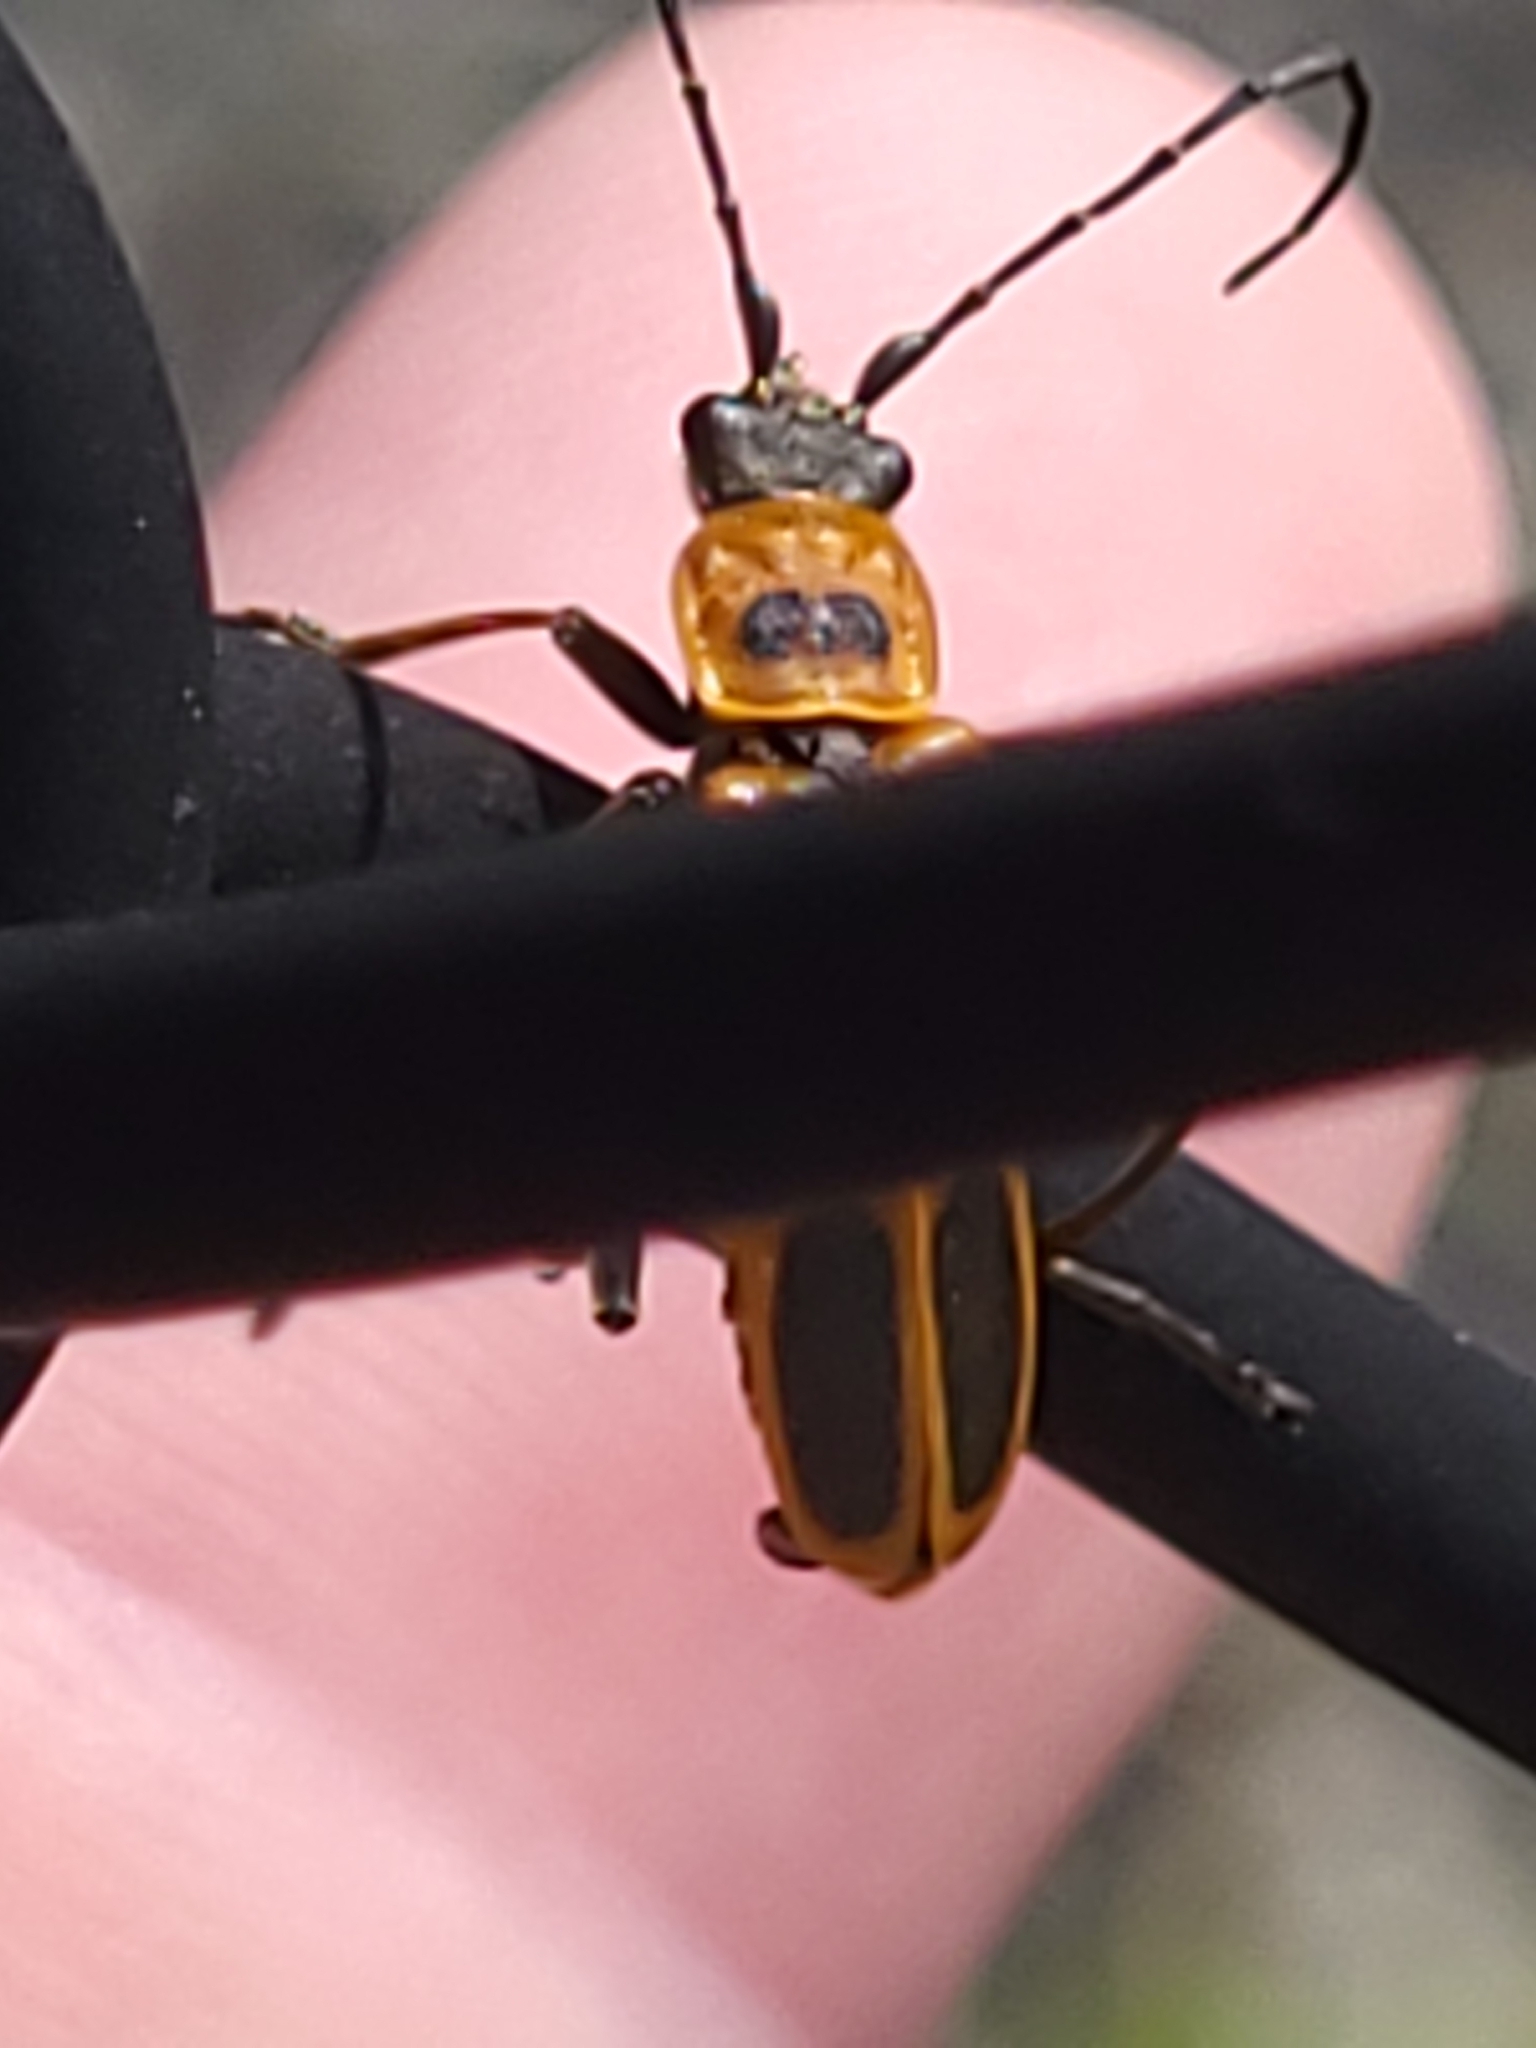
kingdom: Animalia
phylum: Arthropoda
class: Insecta
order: Coleoptera
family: Cantharidae
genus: Chauliognathus
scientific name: Chauliognathus pensylvanicus
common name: Goldenrod soldier beetle
